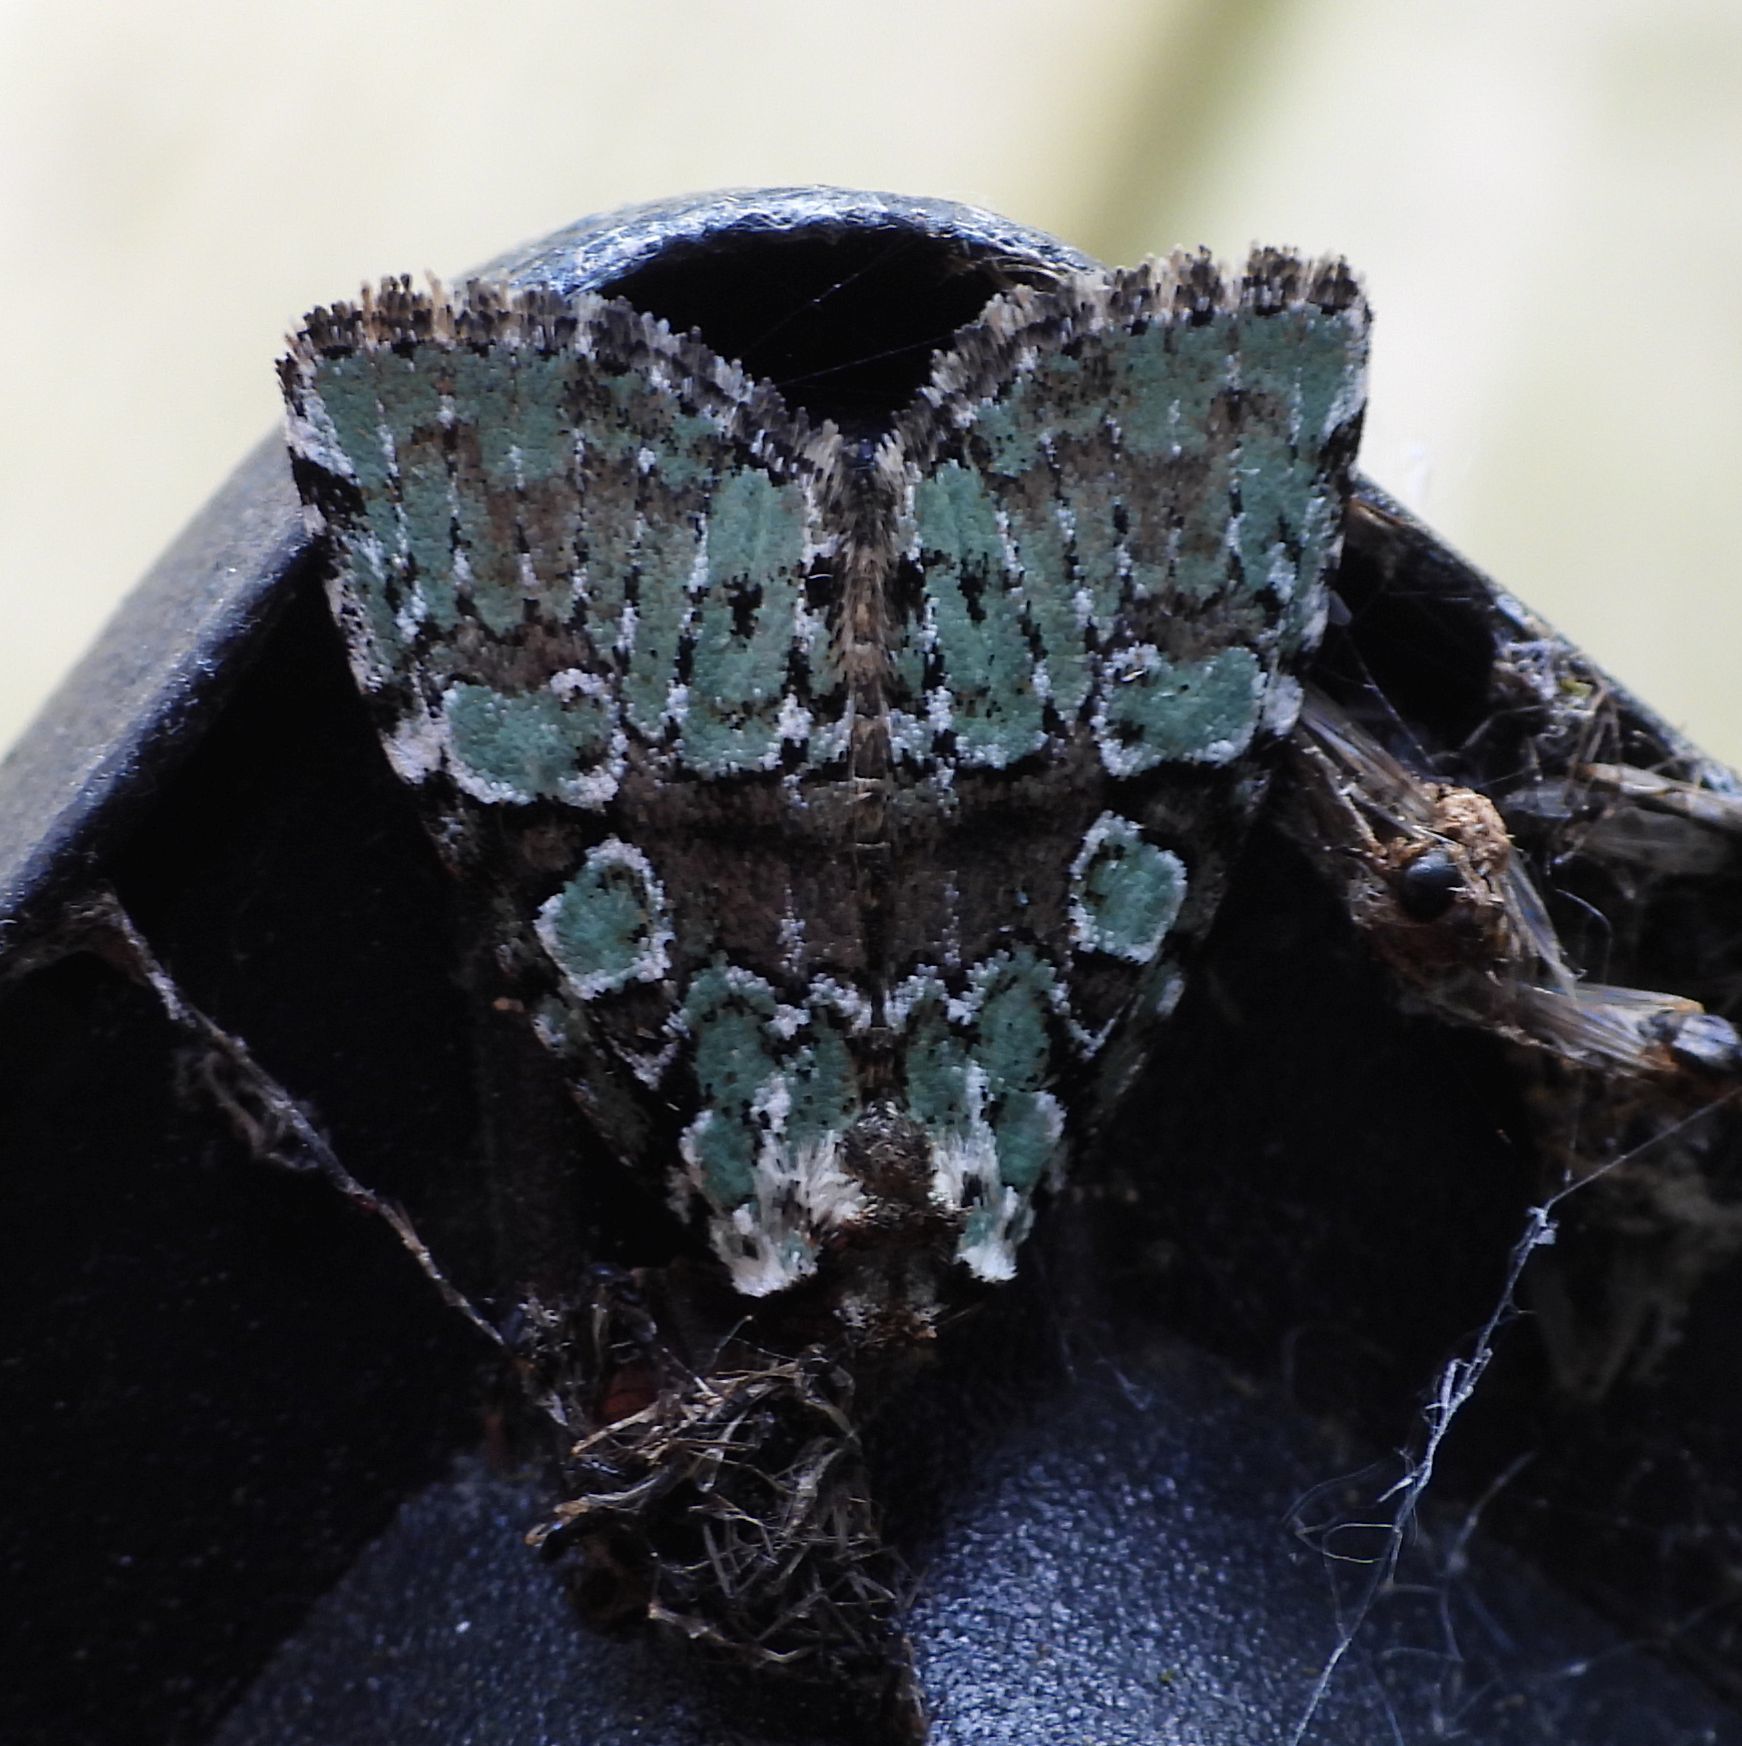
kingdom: Animalia
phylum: Arthropoda
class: Insecta
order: Lepidoptera
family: Noctuidae
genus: Leuconycta
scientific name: Leuconycta lepidula
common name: Marbled-green leuconycta moth
